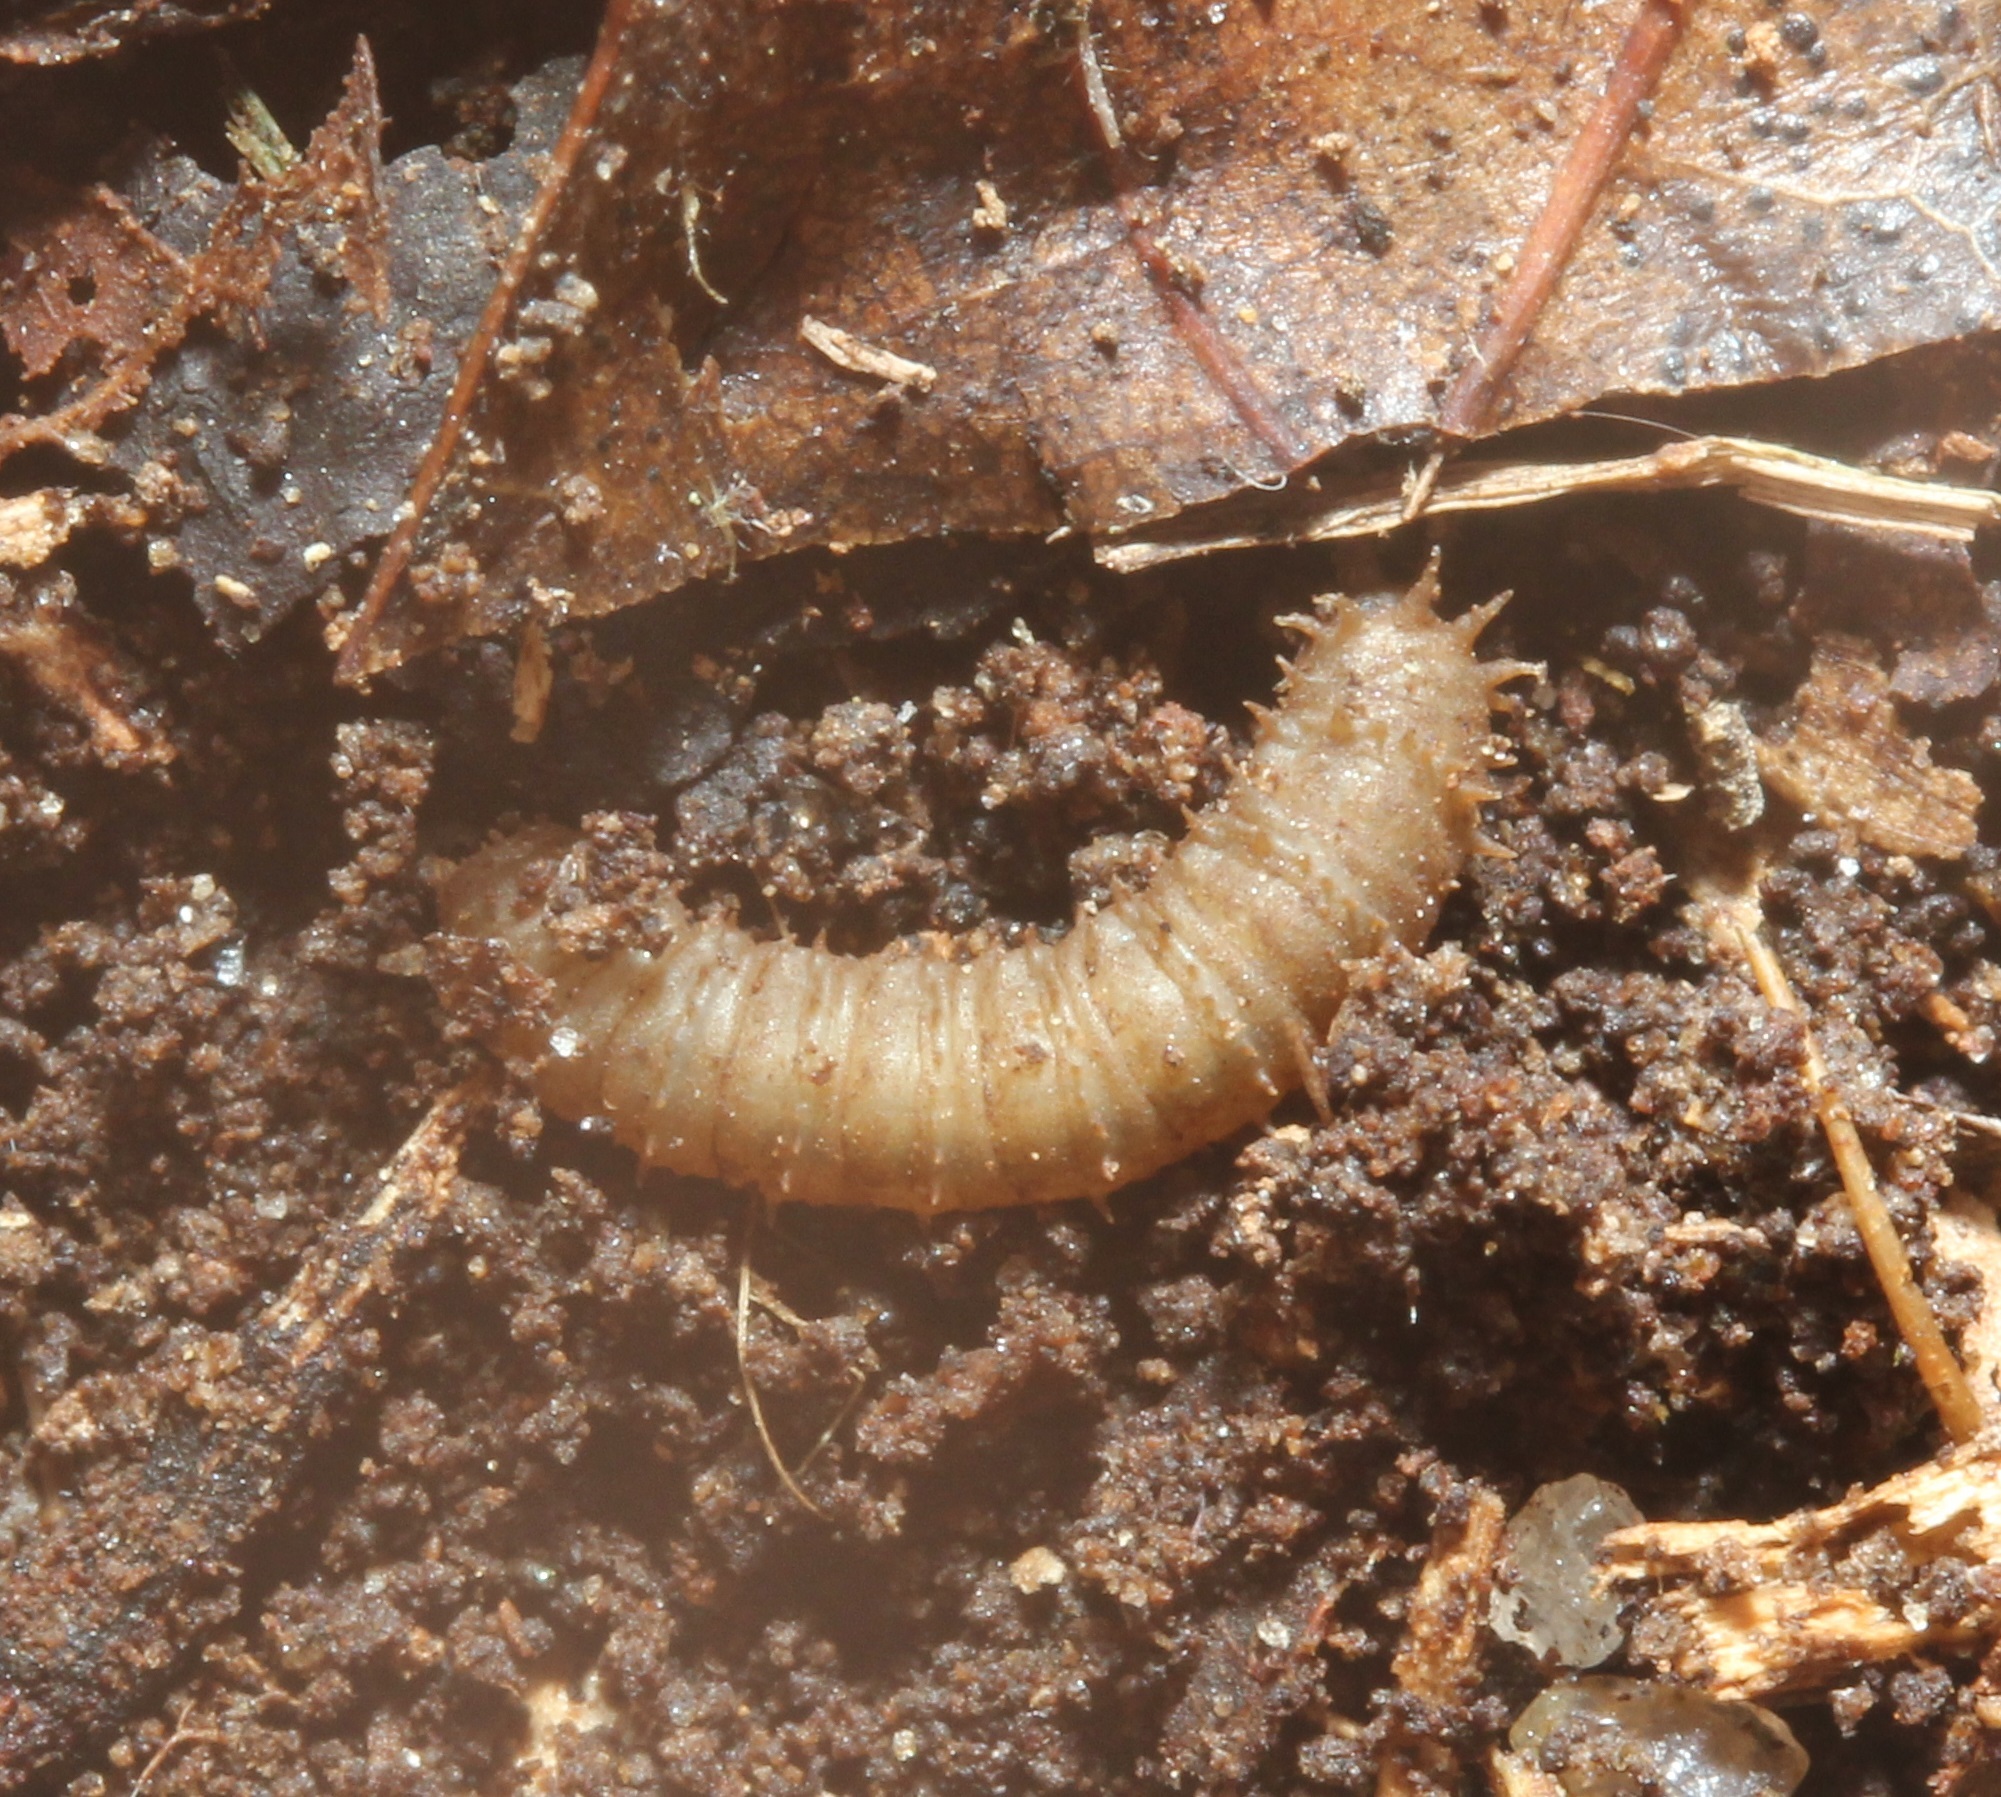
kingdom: Animalia
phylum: Arthropoda
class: Insecta
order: Diptera
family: Bibionidae
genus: Bibio
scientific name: Bibio
